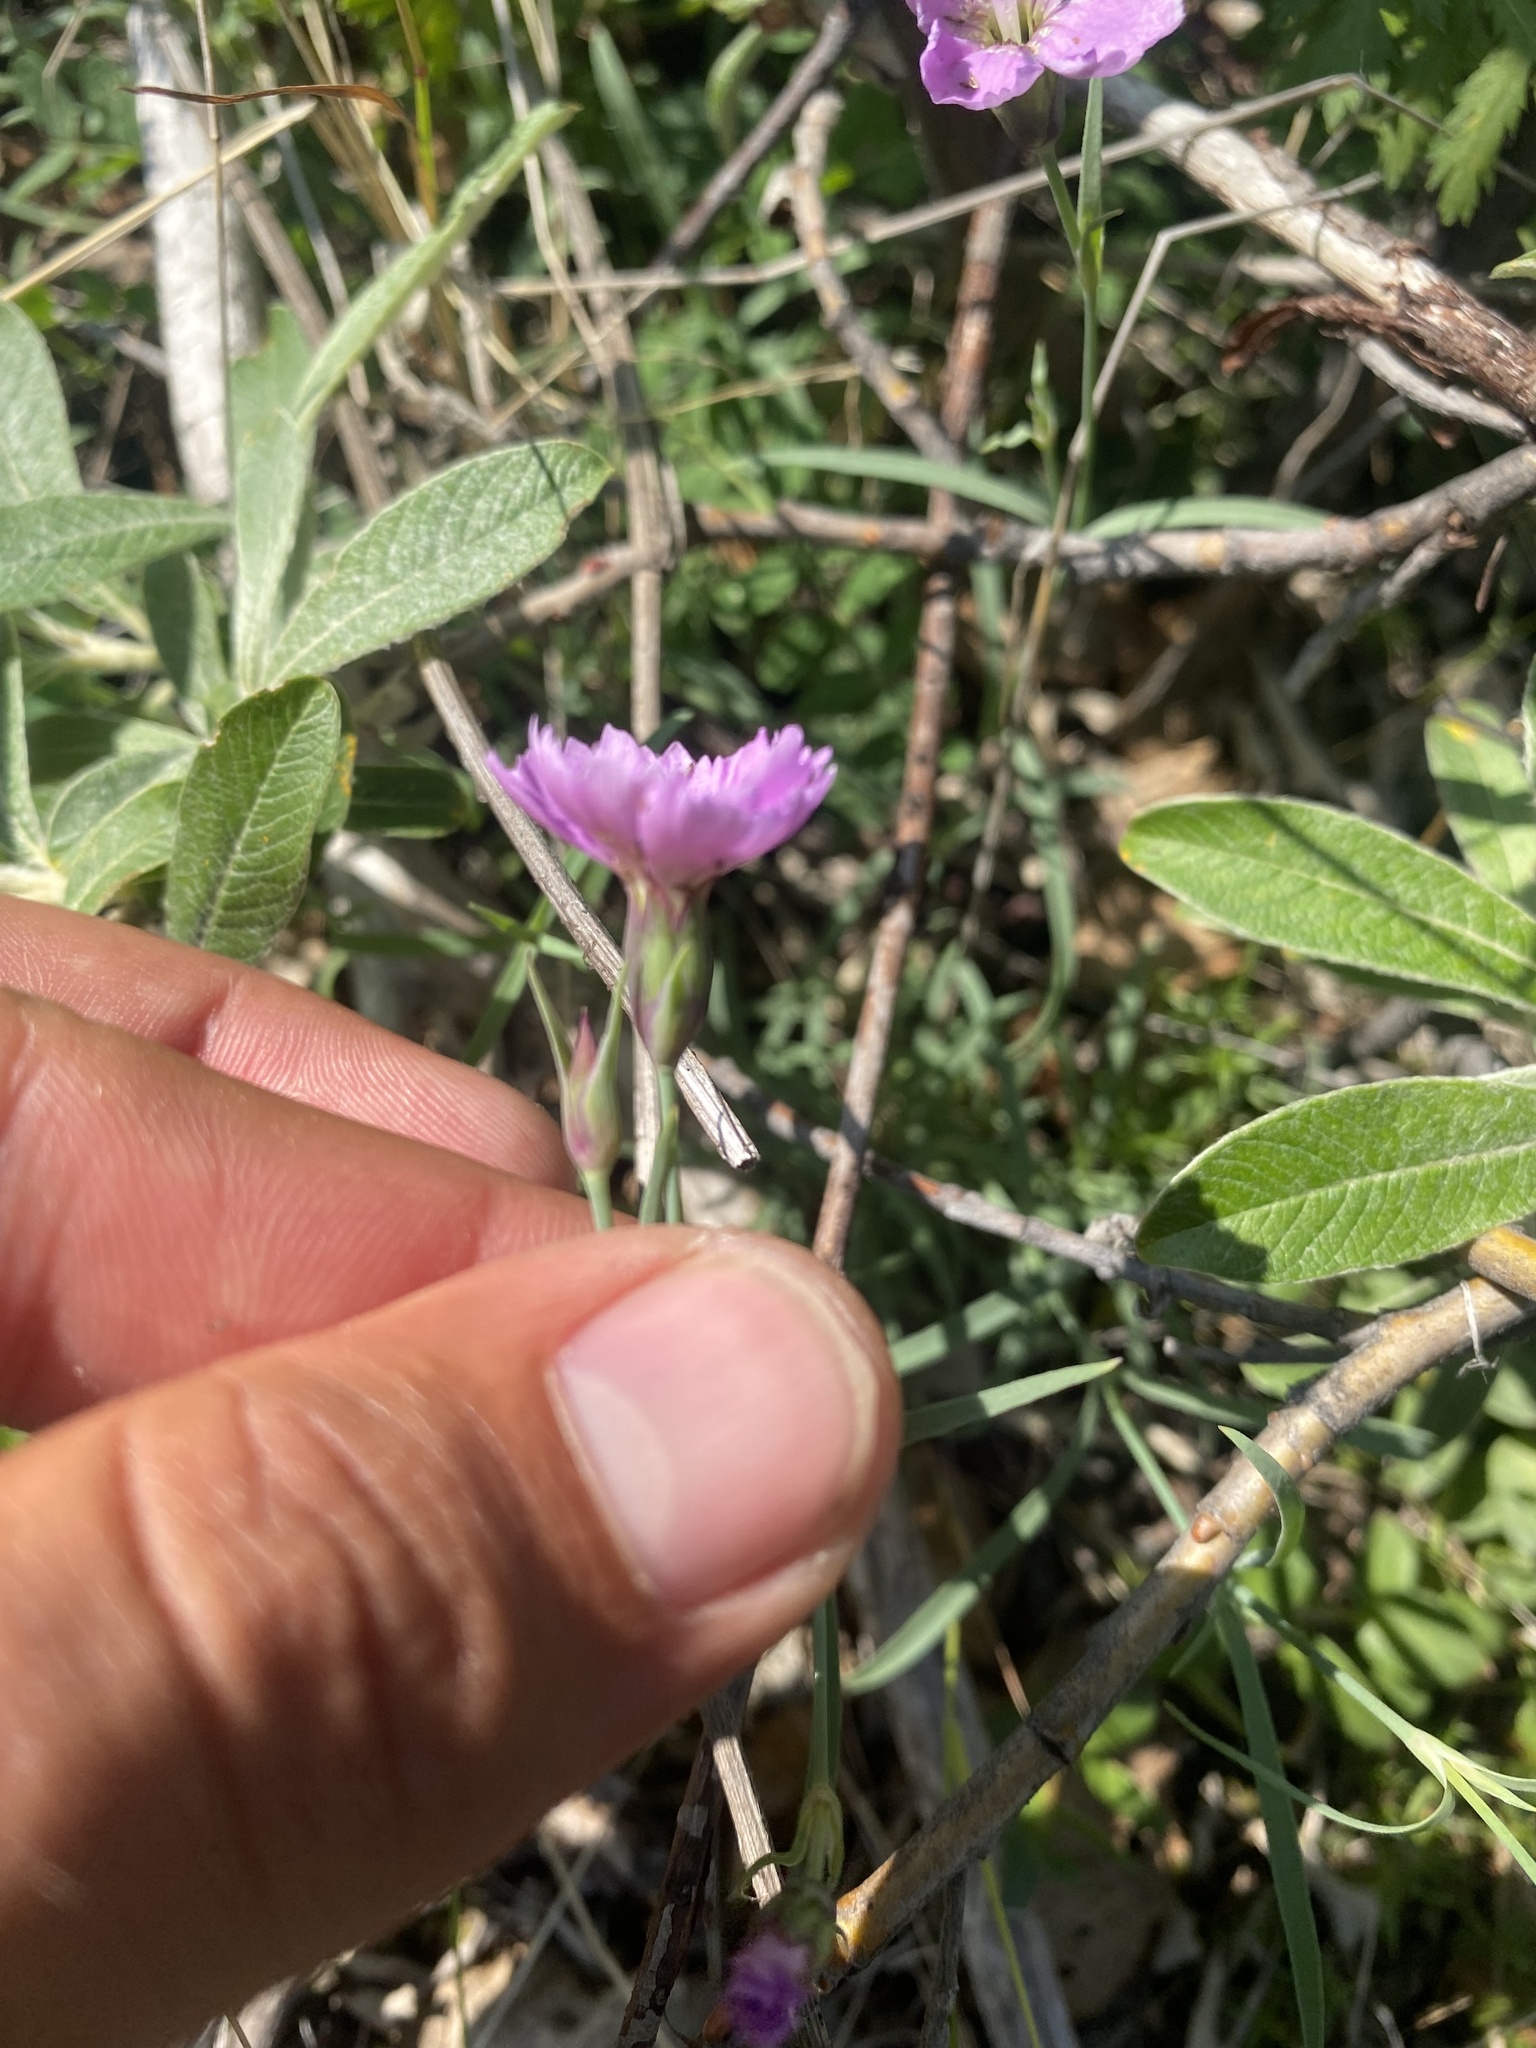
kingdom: Plantae
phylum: Tracheophyta
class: Magnoliopsida
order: Caryophyllales
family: Caryophyllaceae
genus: Dianthus
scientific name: Dianthus repens
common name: Northern pink
